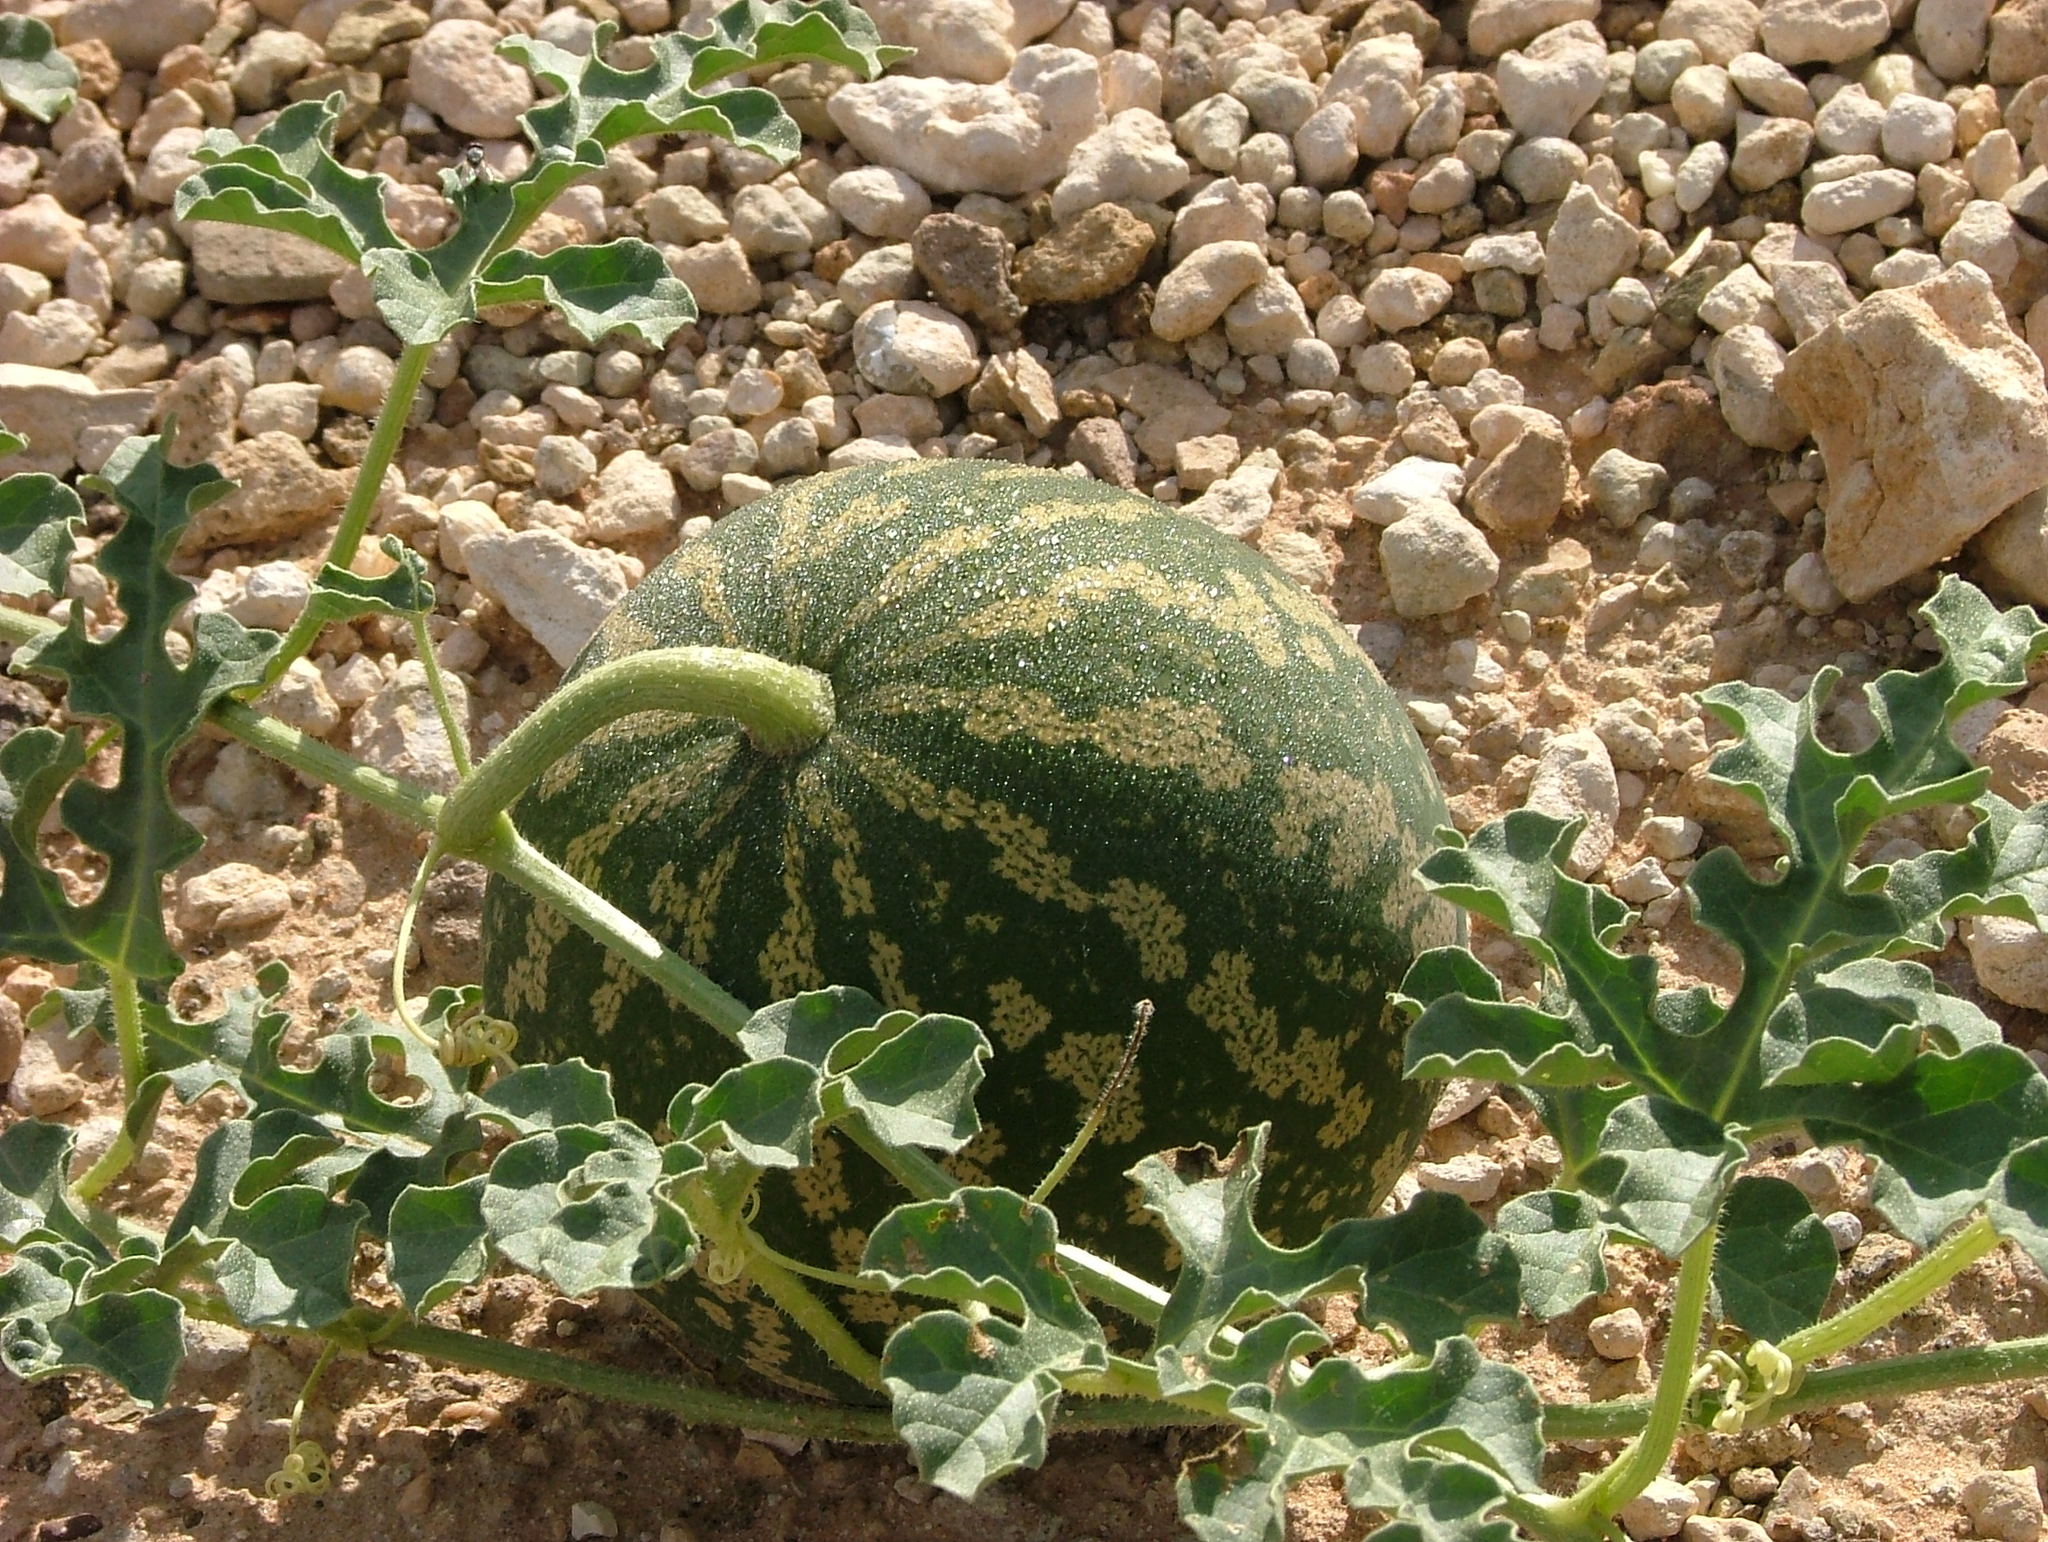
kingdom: Plantae
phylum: Tracheophyta
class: Magnoliopsida
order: Cucurbitales
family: Cucurbitaceae
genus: Citrullus
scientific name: Citrullus amarus
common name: Fodder-melon
